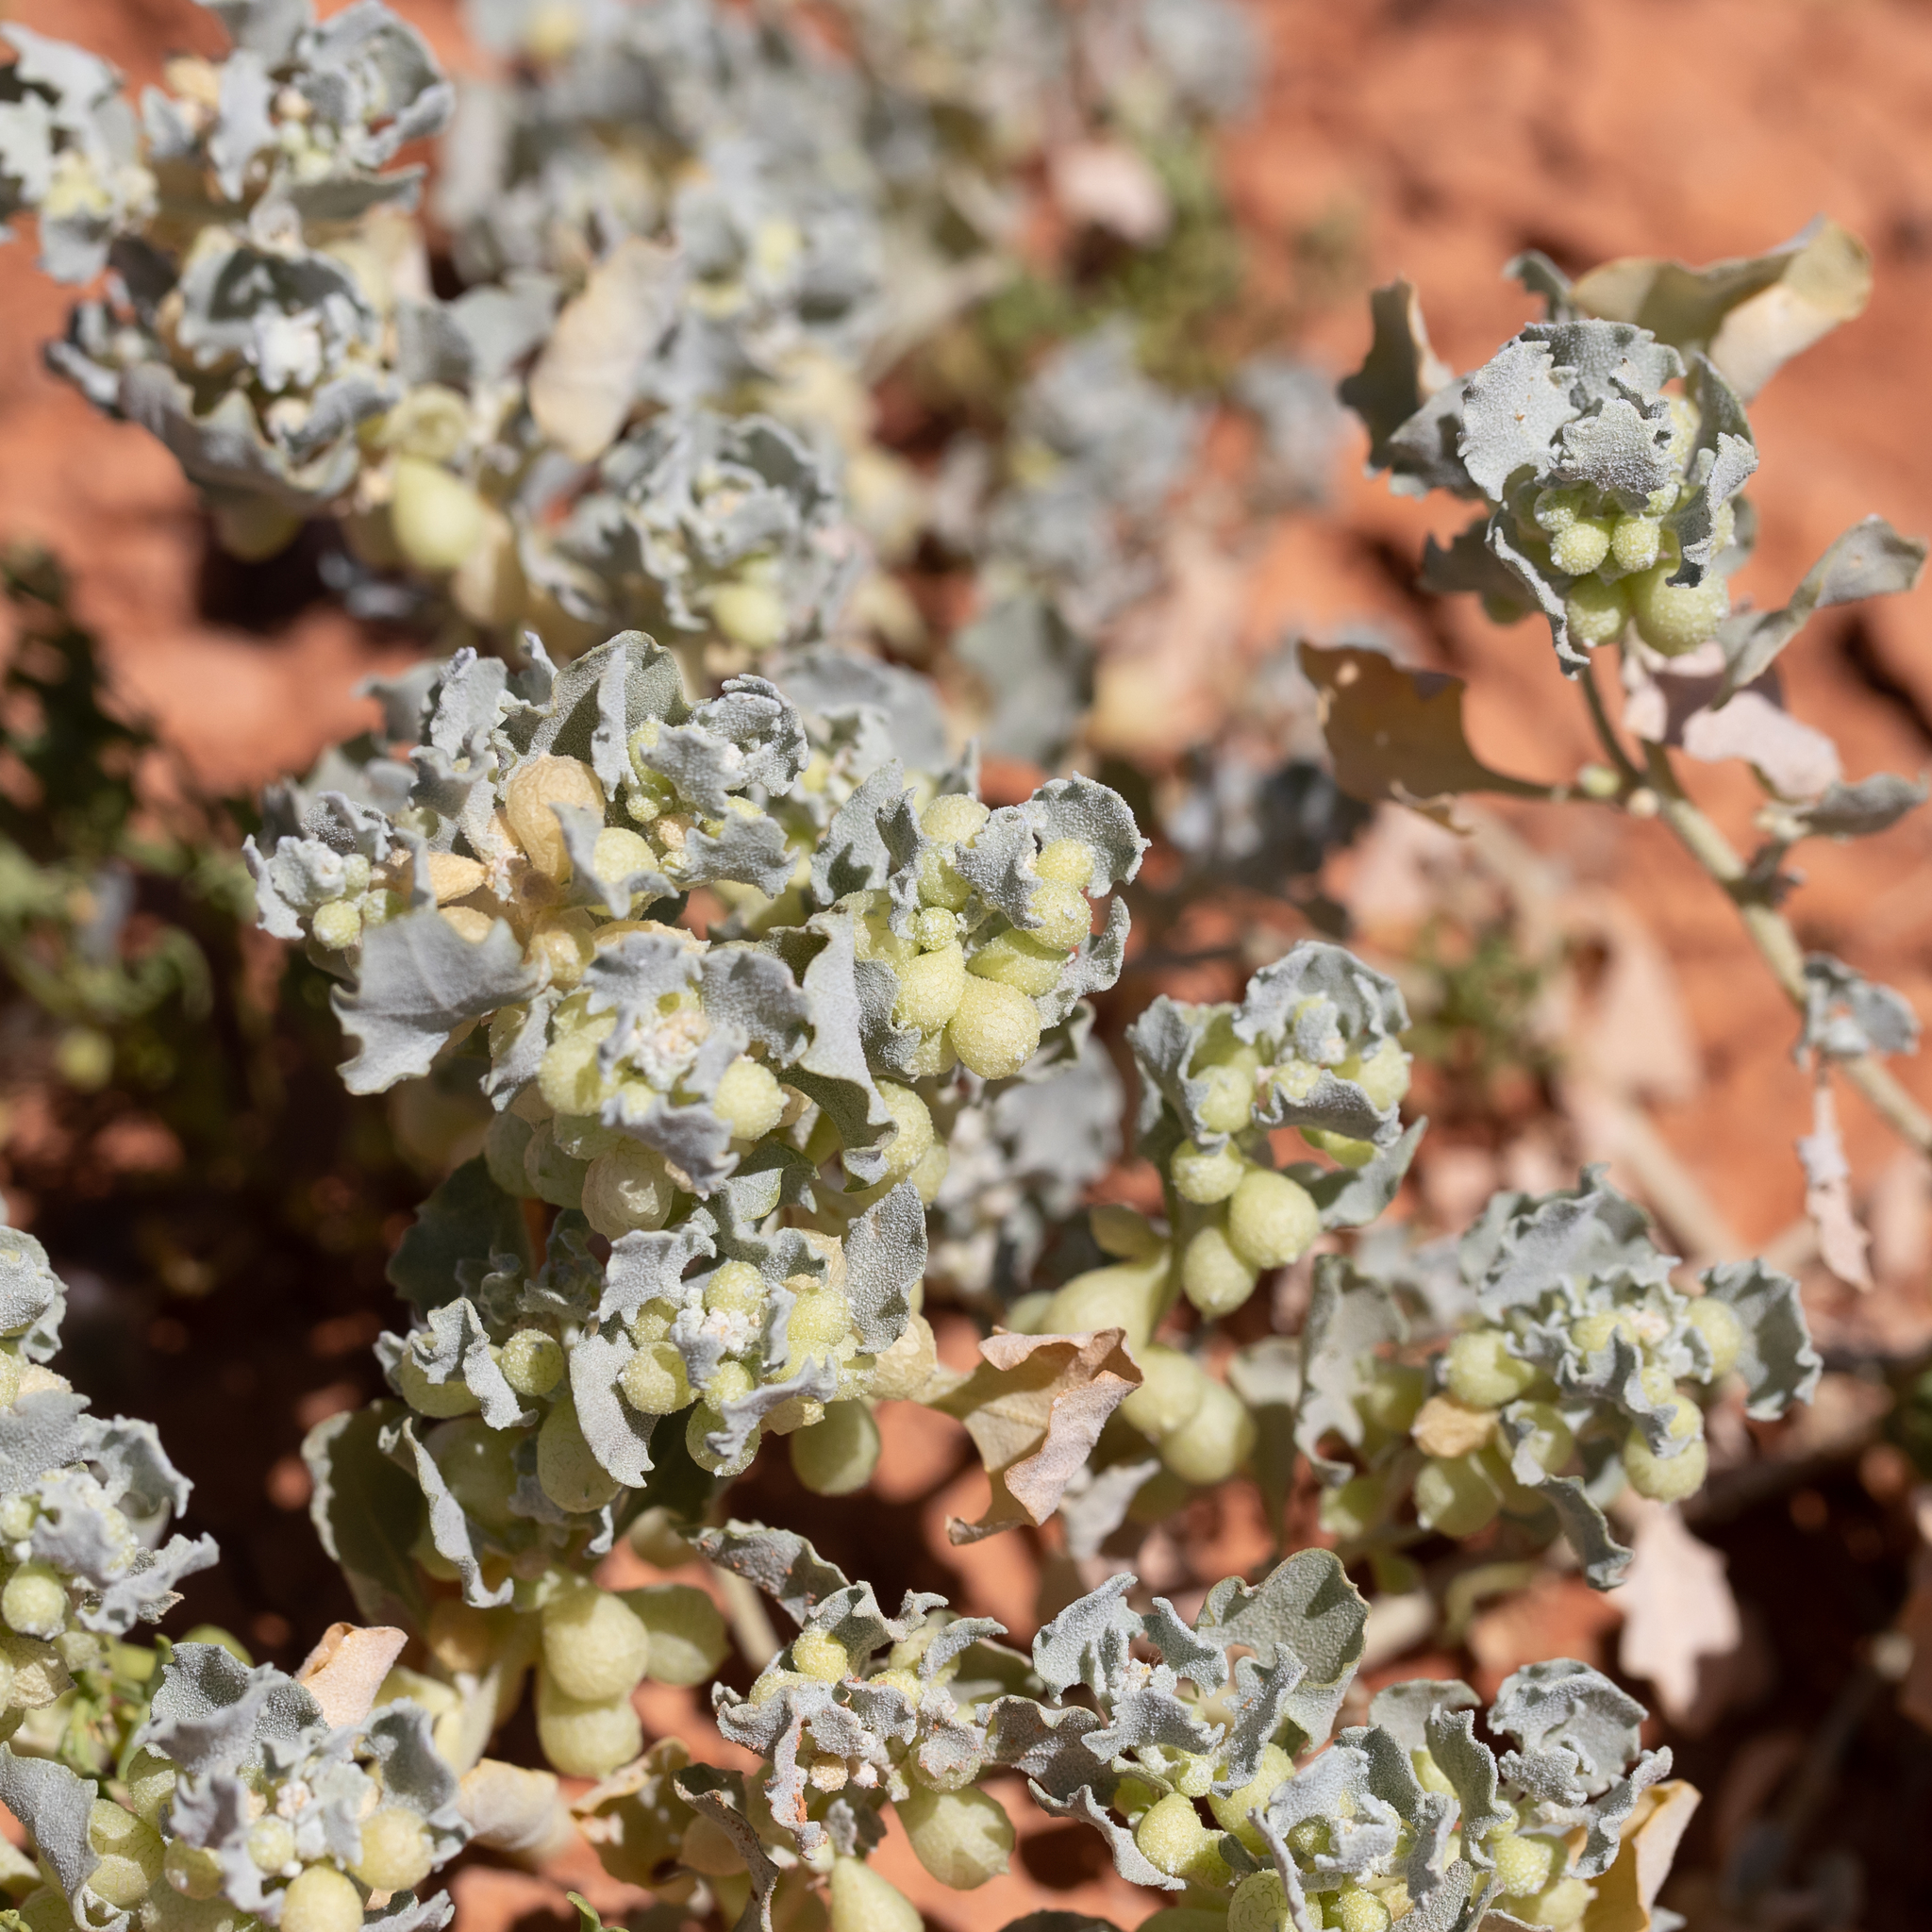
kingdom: Plantae
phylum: Tracheophyta
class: Magnoliopsida
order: Caryophyllales
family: Amaranthaceae
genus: Atriplex
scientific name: Atriplex holocarpa
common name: Pop saltbush
